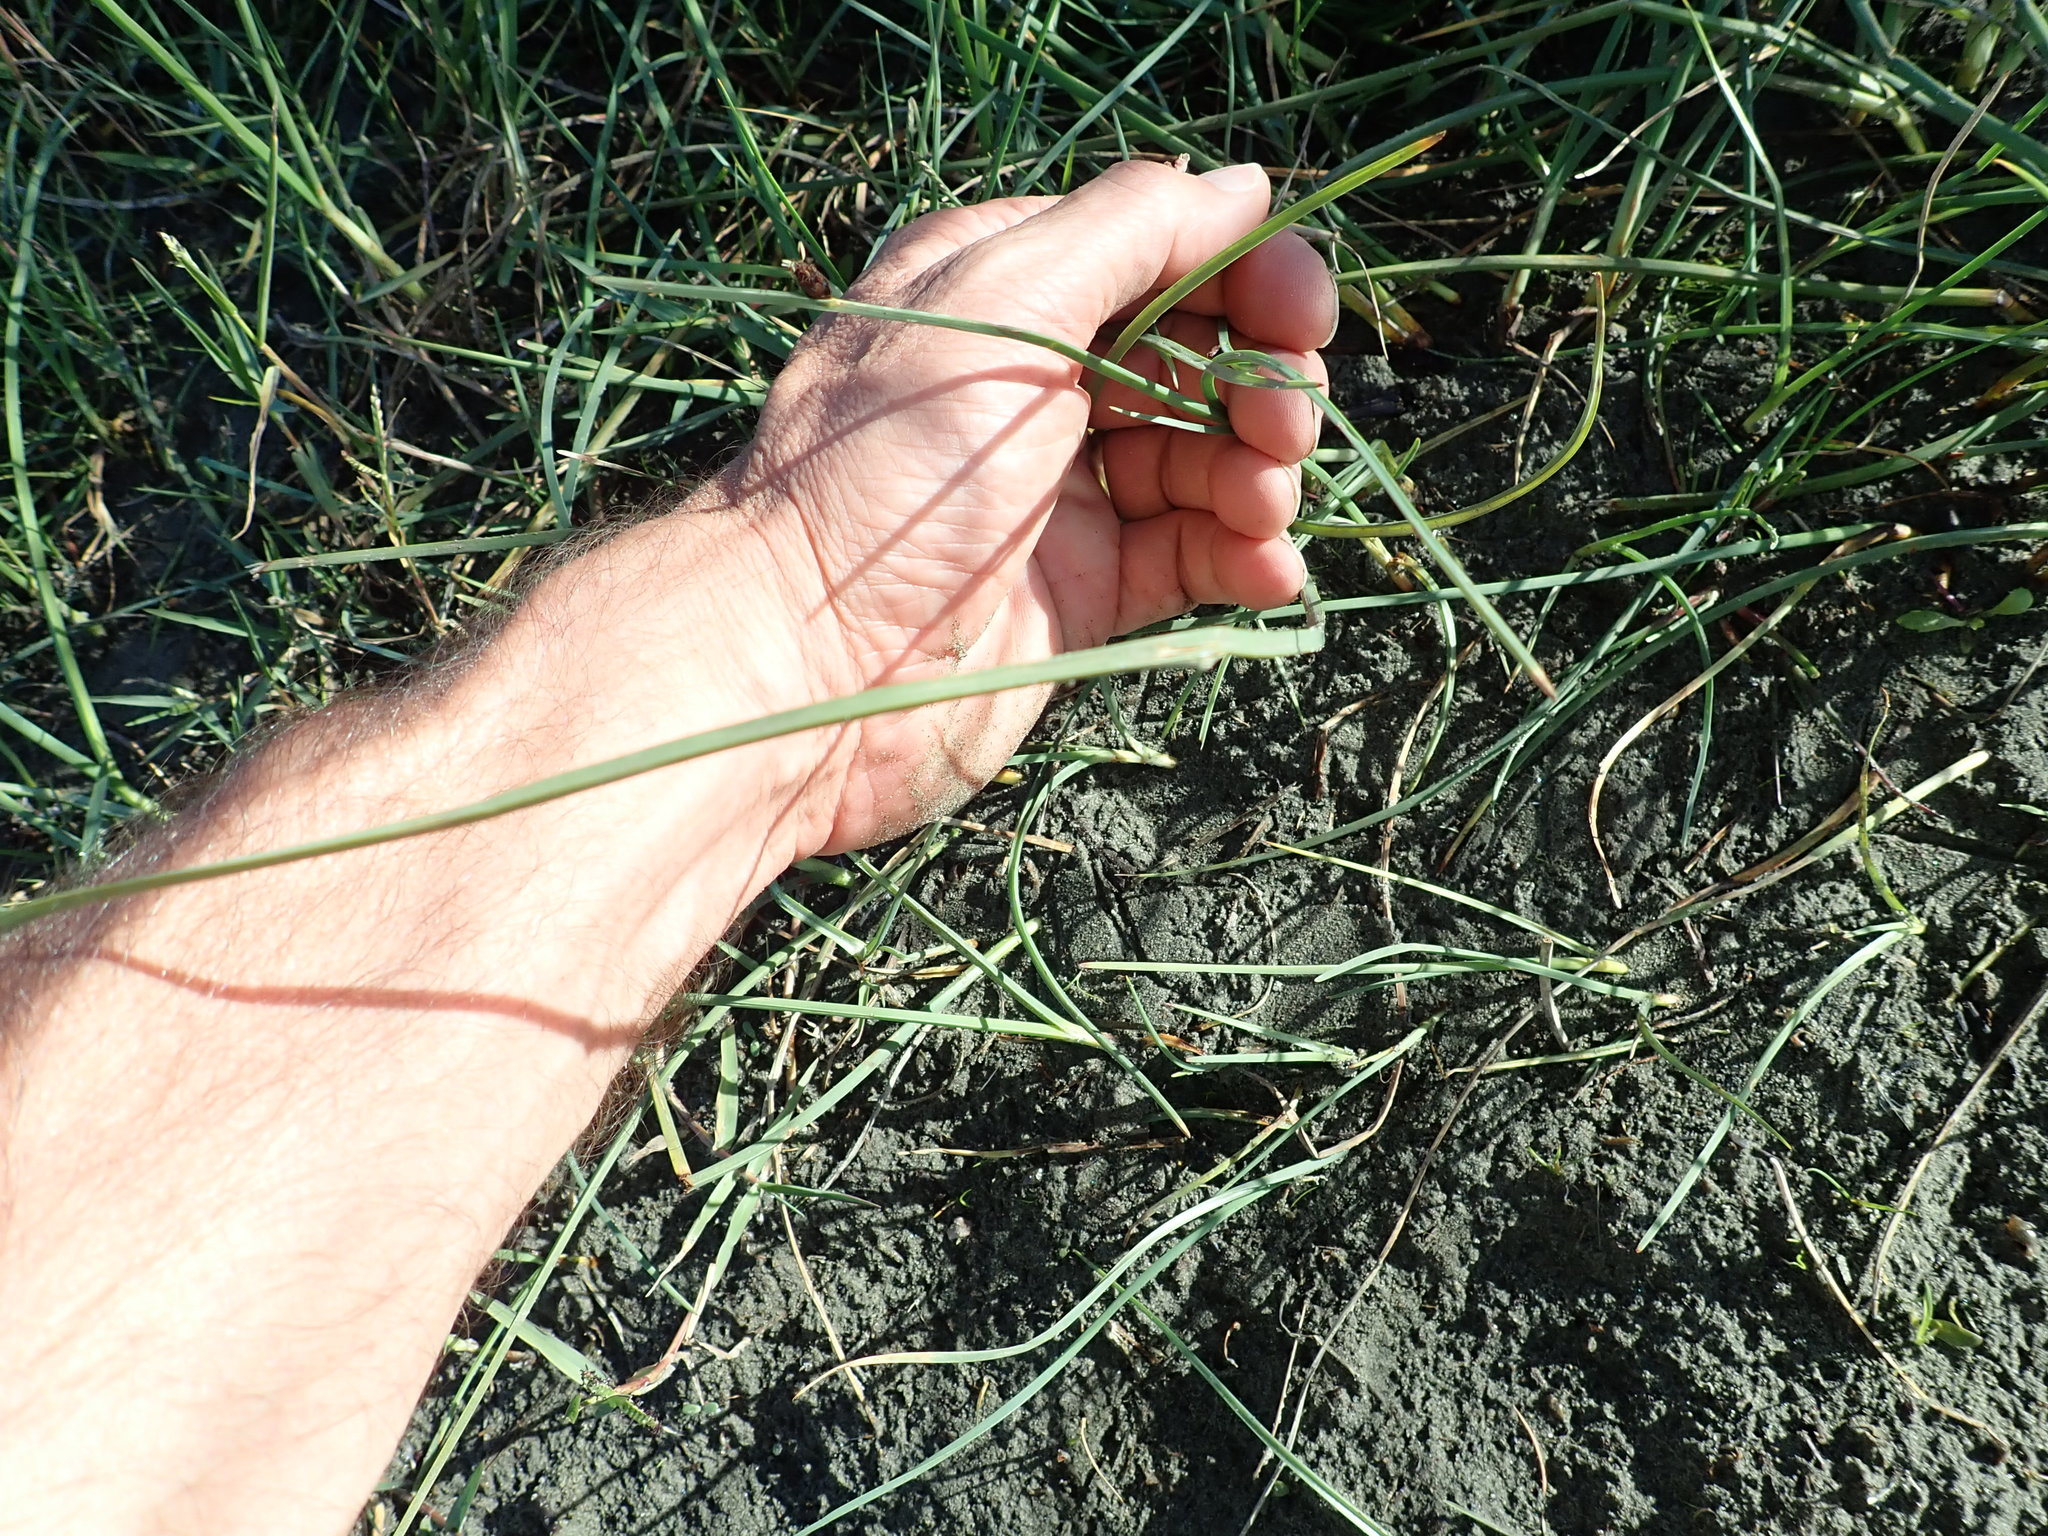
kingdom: Plantae
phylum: Tracheophyta
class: Liliopsida
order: Poales
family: Cyperaceae
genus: Schoenoplectus
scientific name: Schoenoplectus pungens
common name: Sharp club-rush
